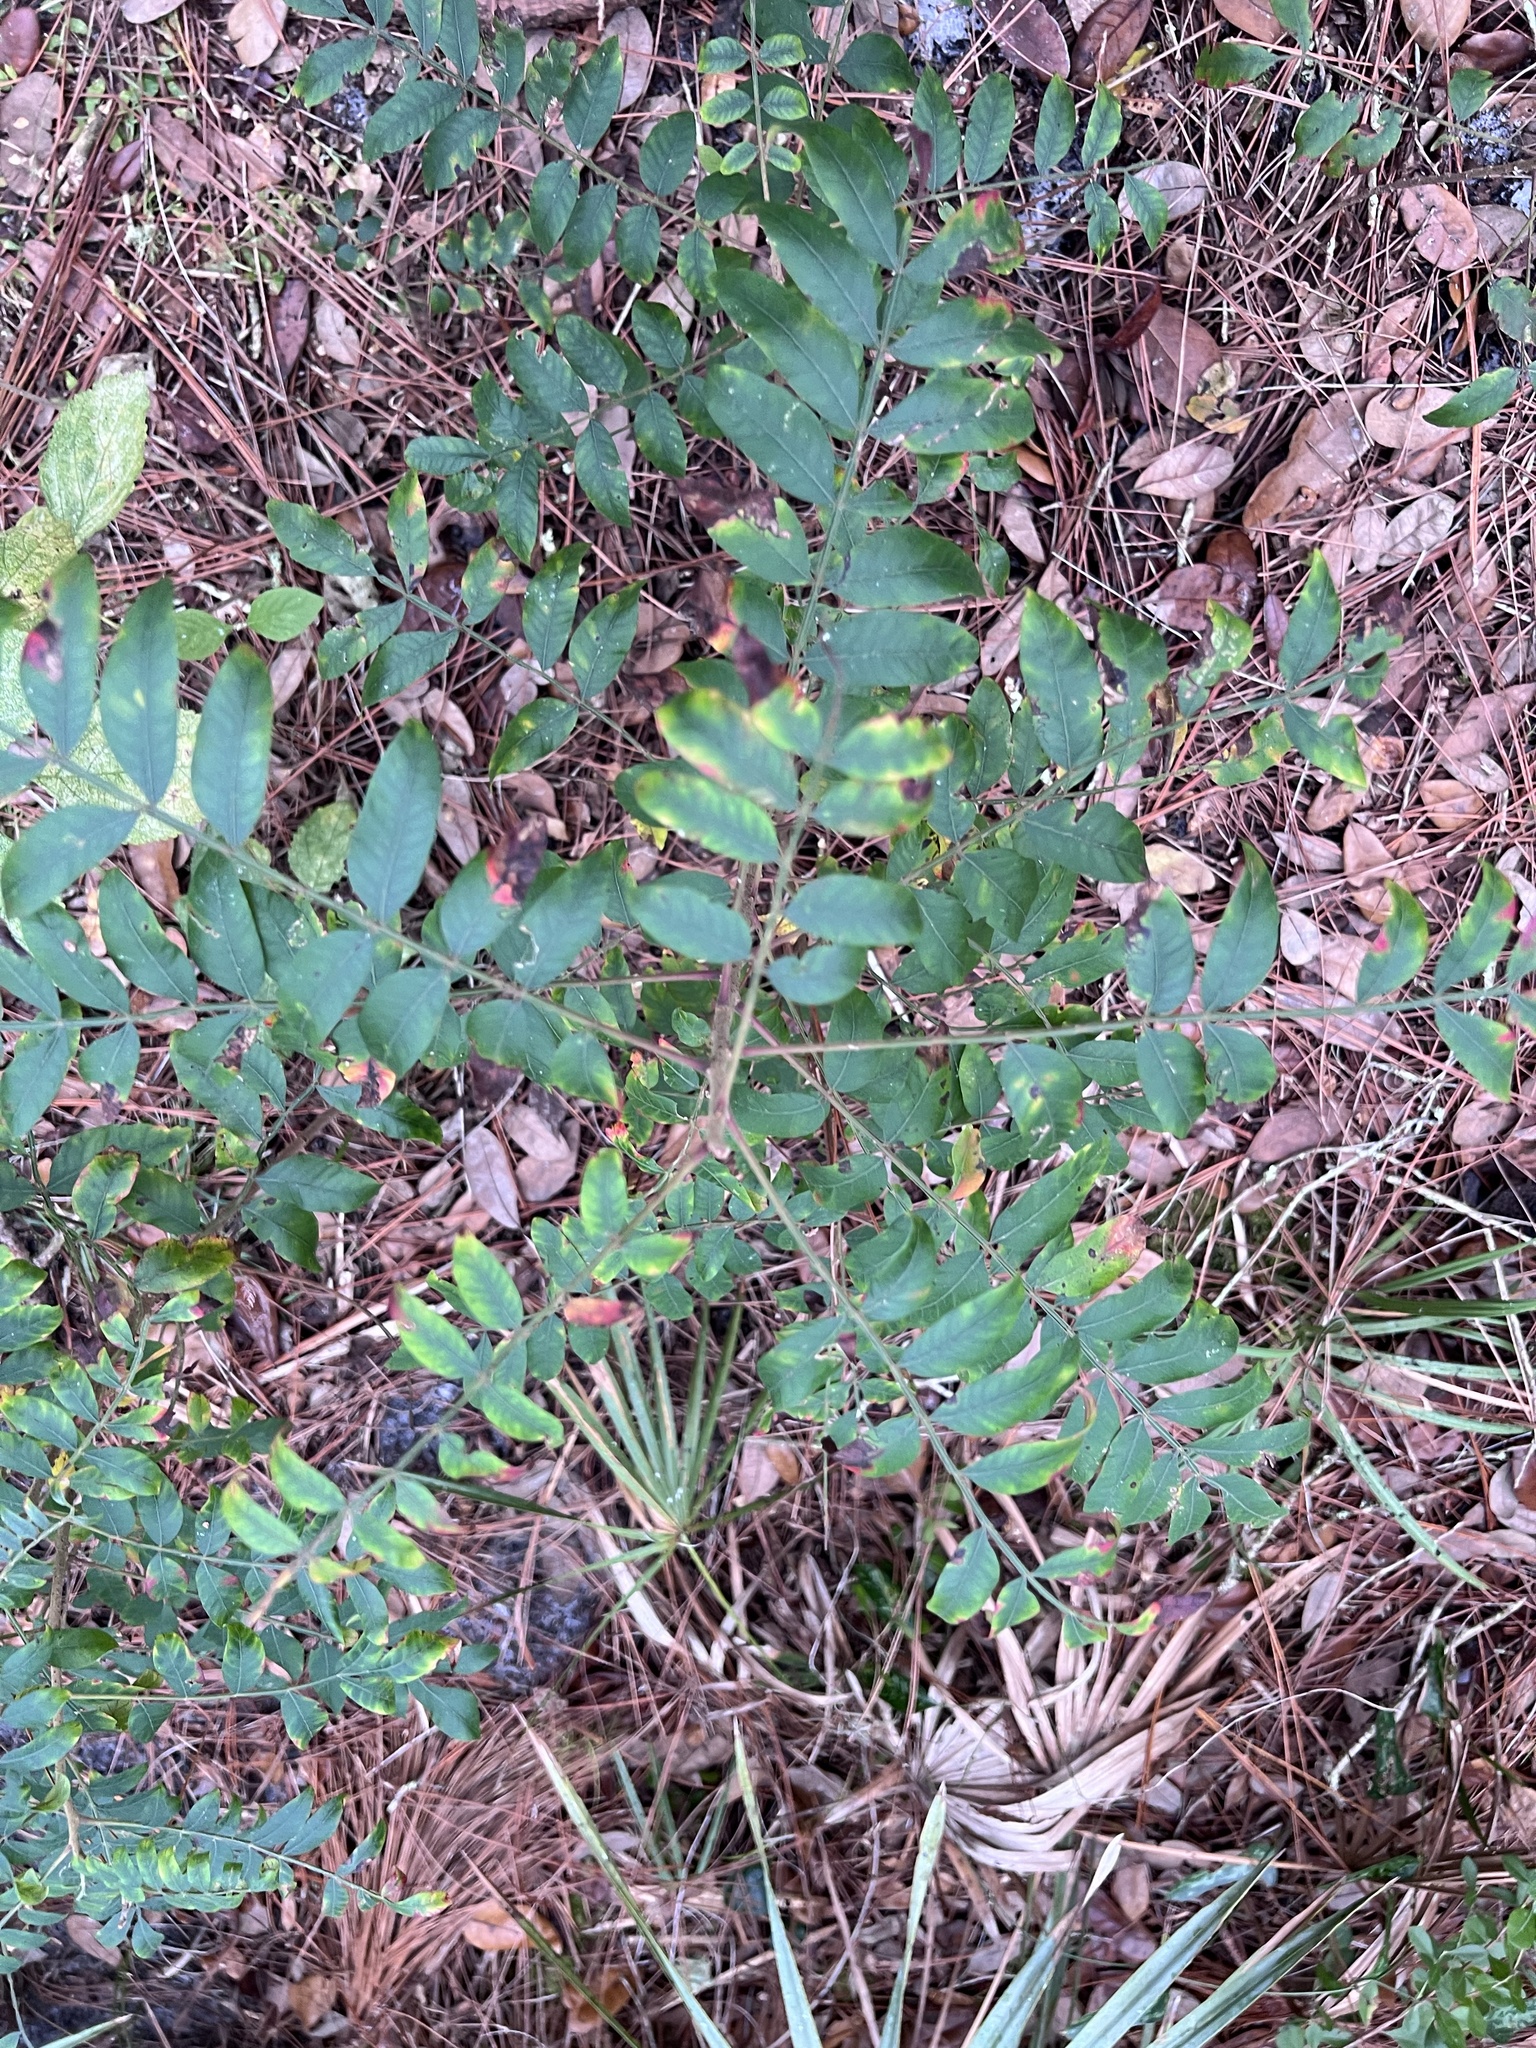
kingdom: Plantae
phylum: Tracheophyta
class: Magnoliopsida
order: Sapindales
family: Anacardiaceae
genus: Rhus
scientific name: Rhus copallina
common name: Shining sumac
